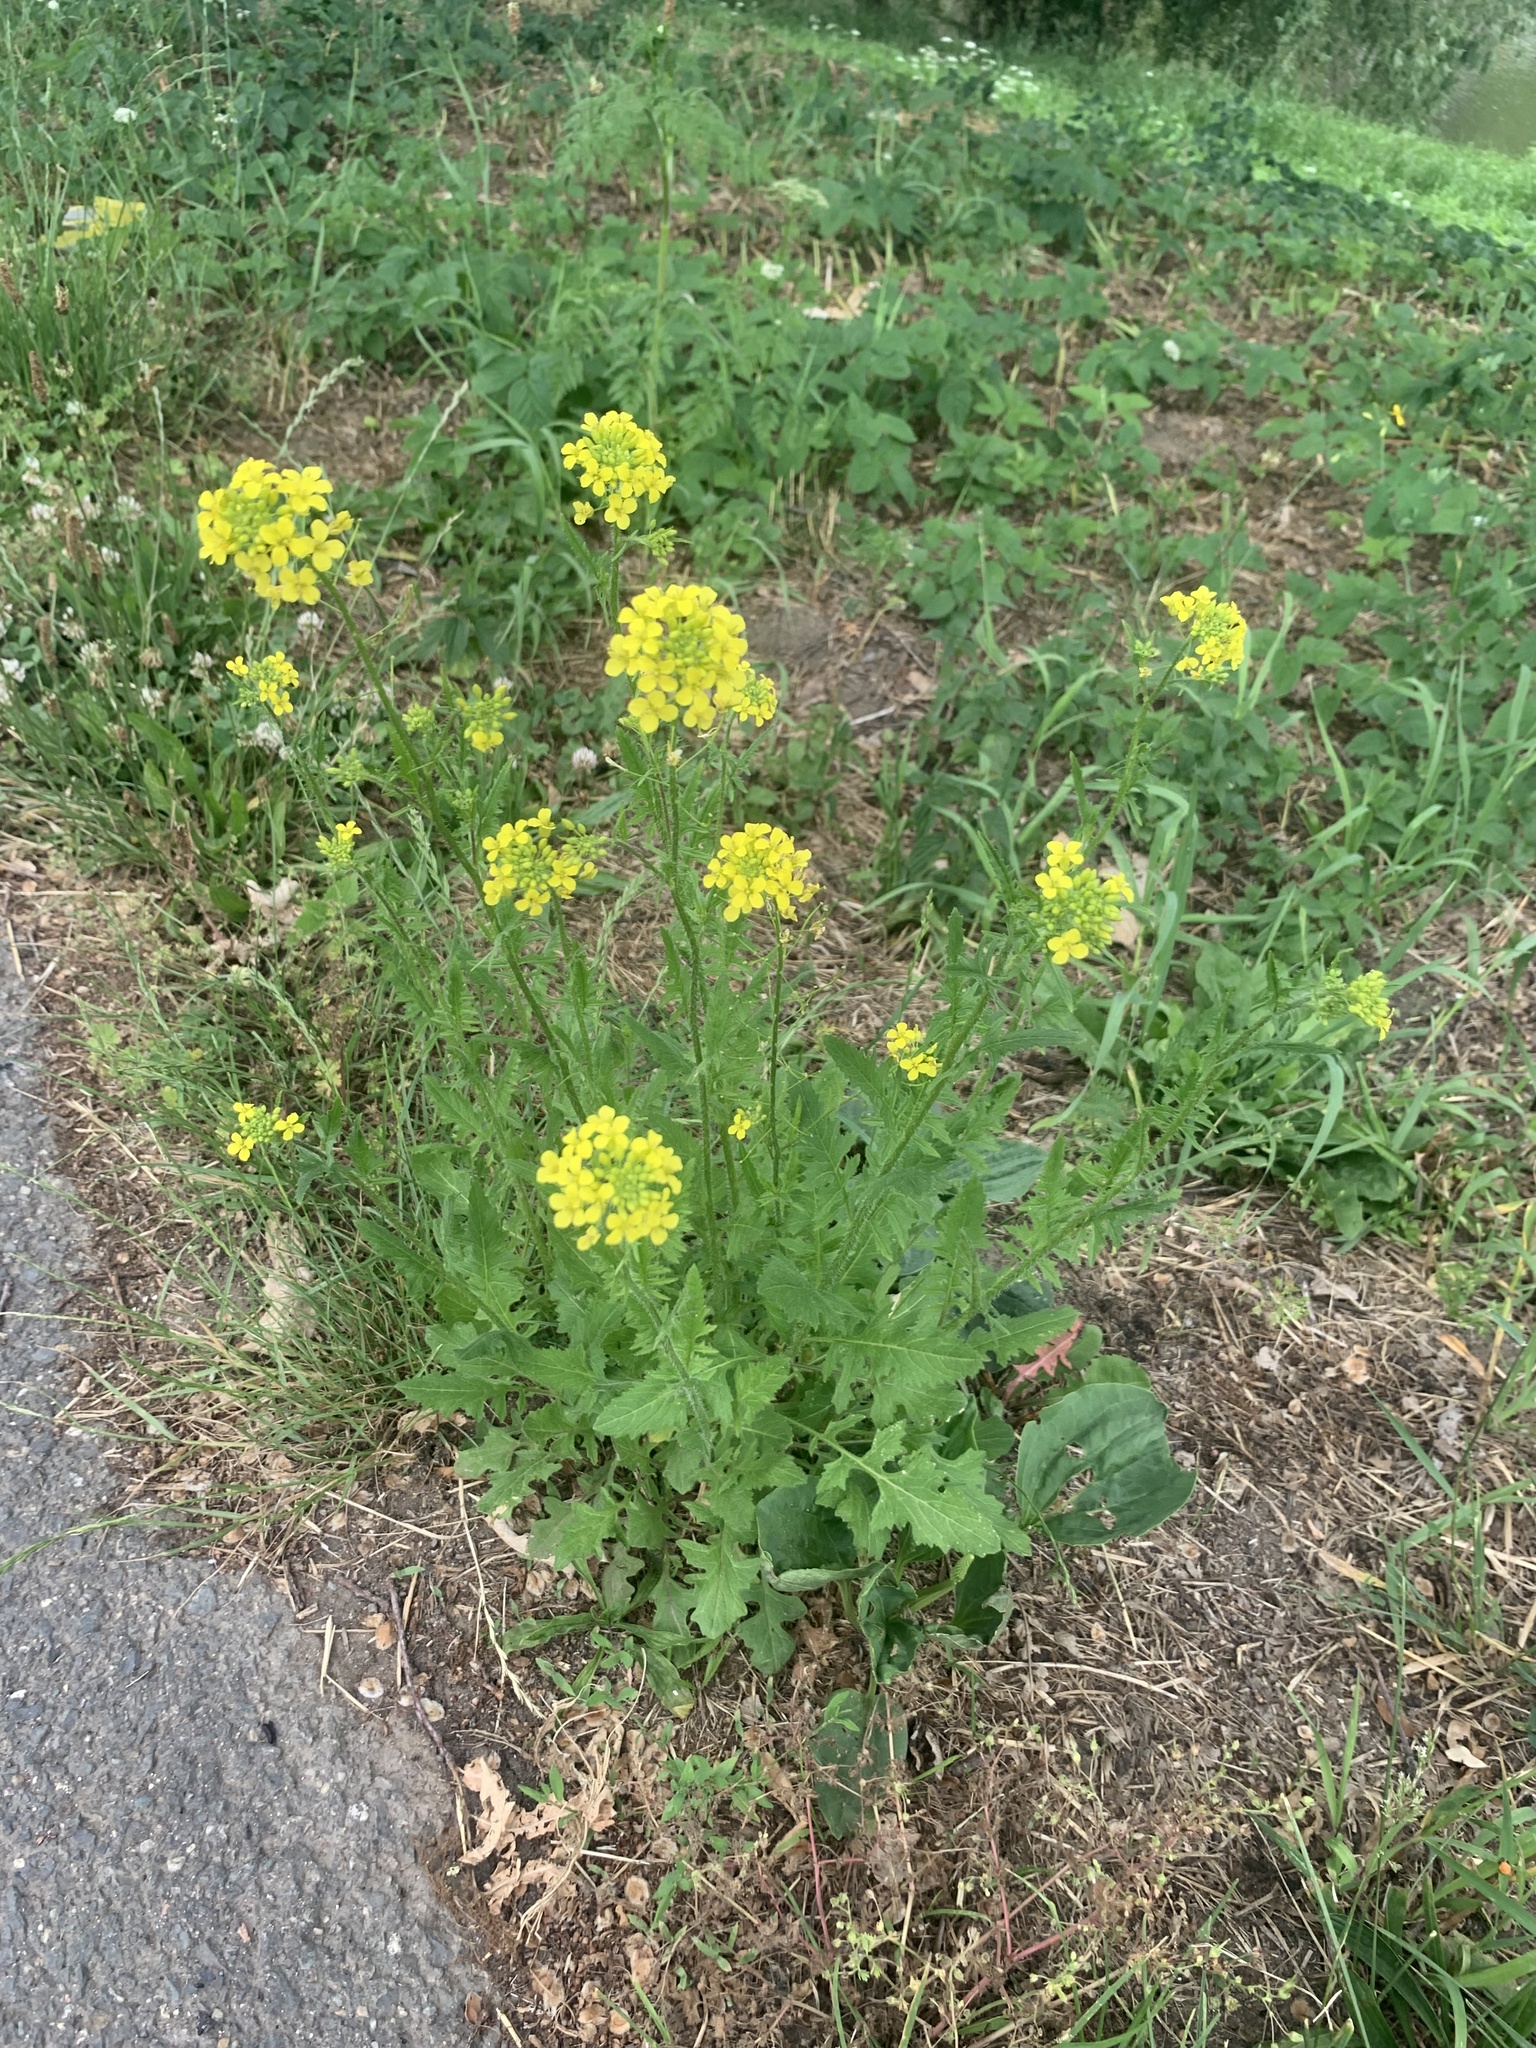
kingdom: Plantae
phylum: Tracheophyta
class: Magnoliopsida
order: Brassicales
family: Brassicaceae
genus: Sisymbrium
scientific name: Sisymbrium loeselii
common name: False london-rocket
